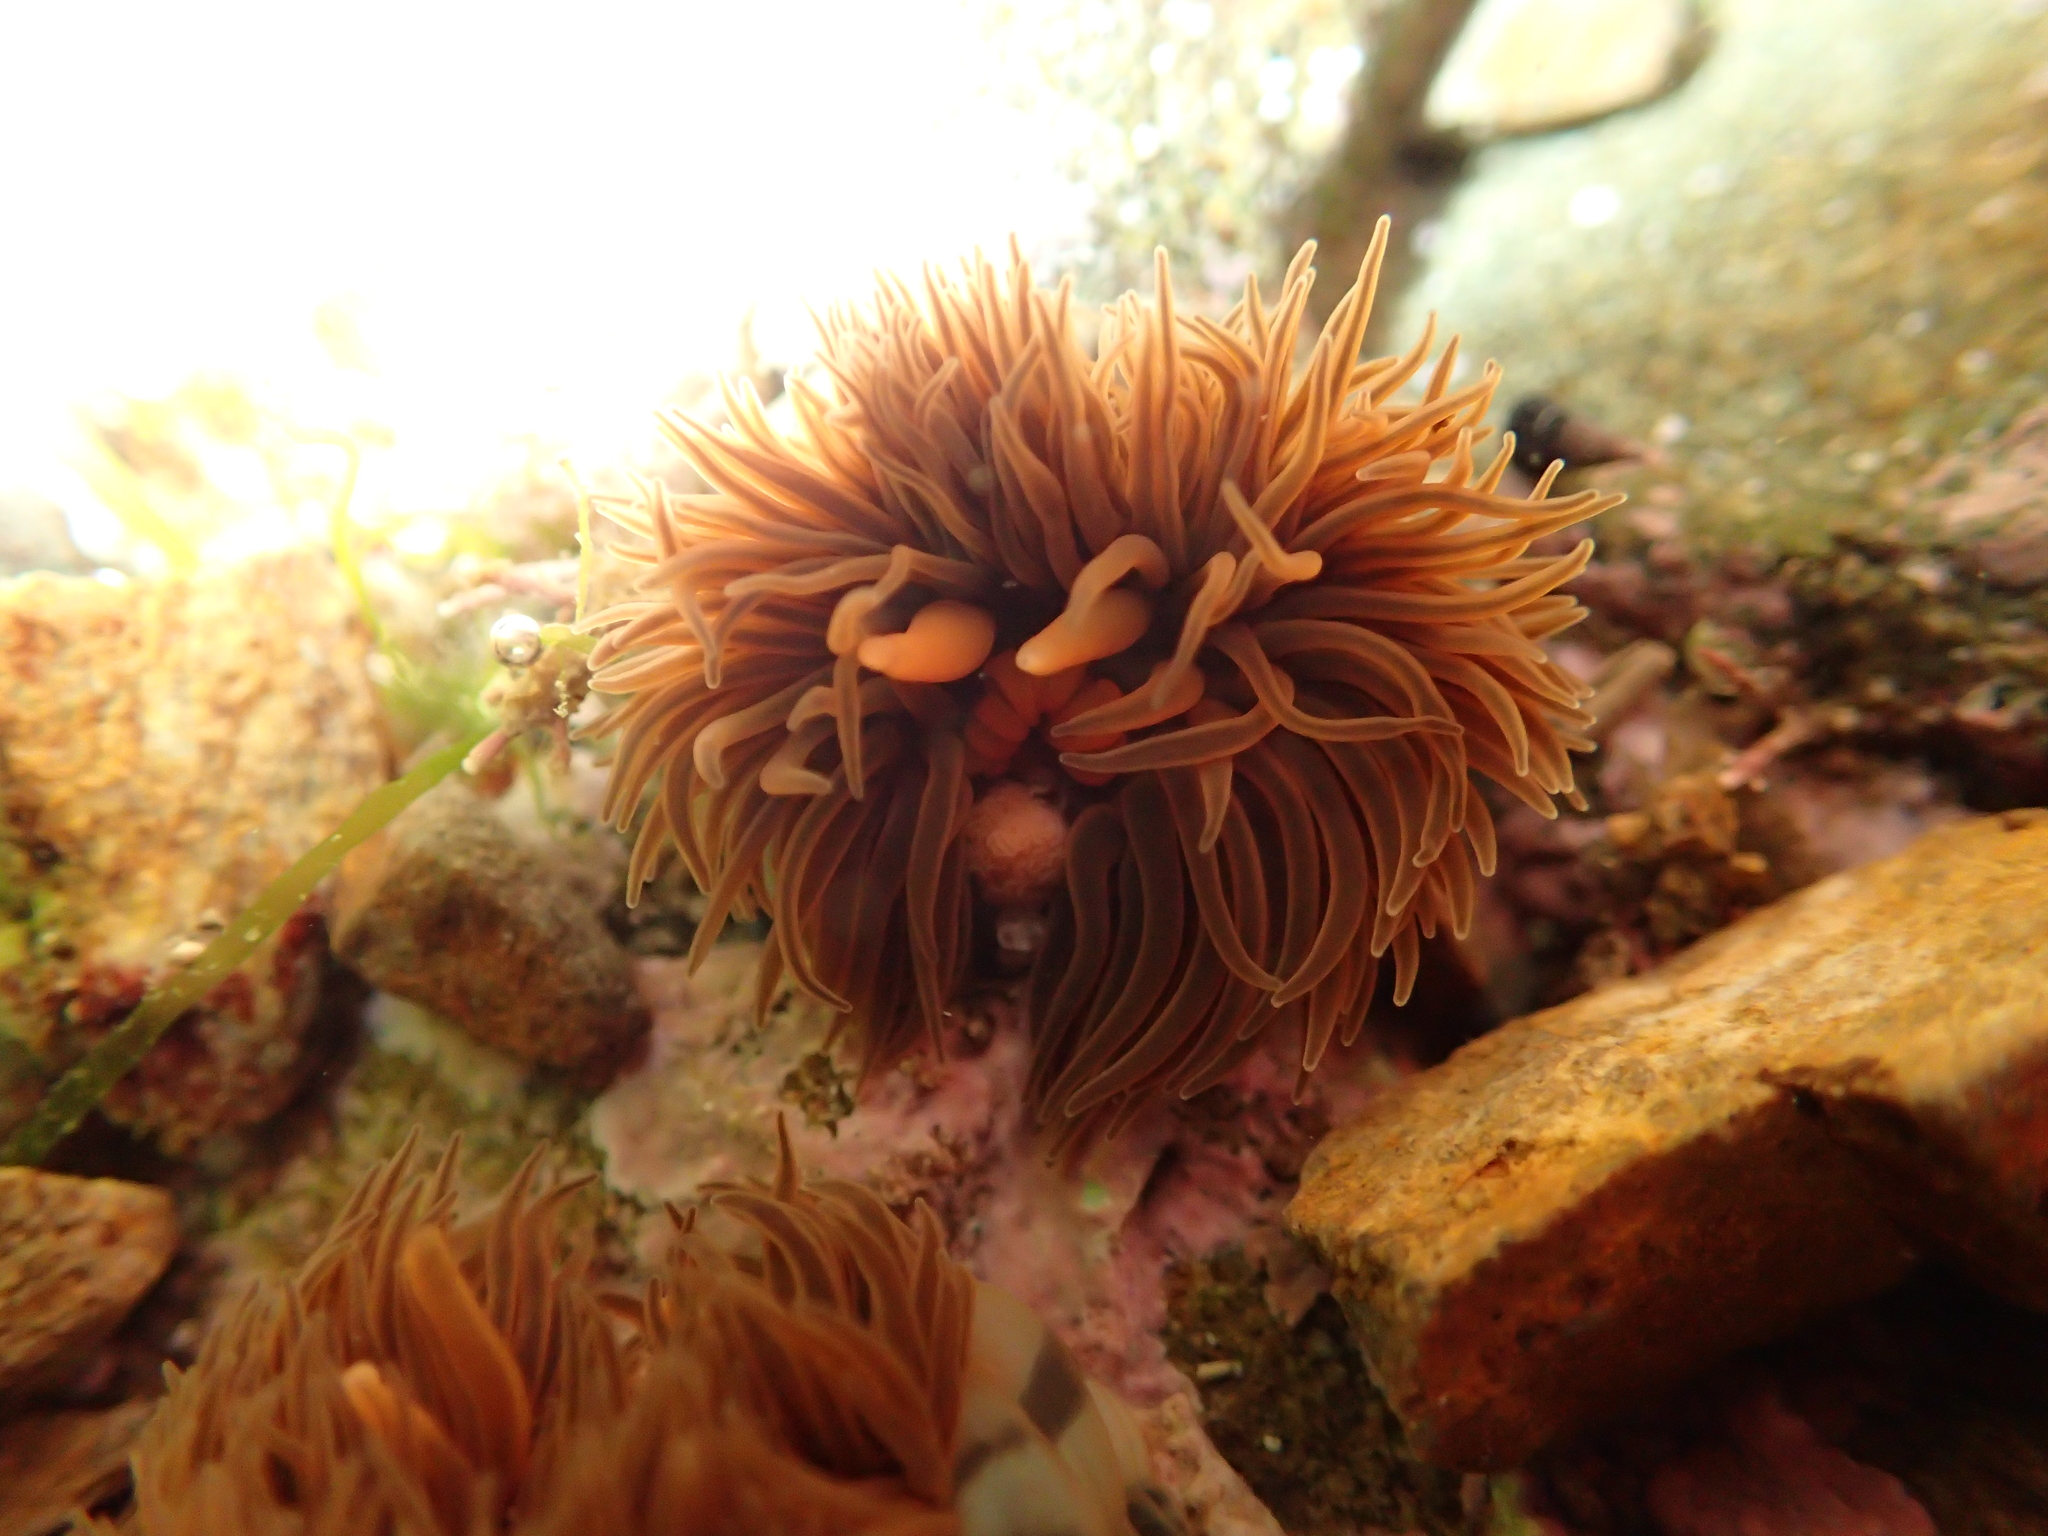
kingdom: Animalia
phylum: Cnidaria
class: Anthozoa
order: Actiniaria
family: Diadumenidae
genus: Diadumene
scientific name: Diadumene neozelanica
